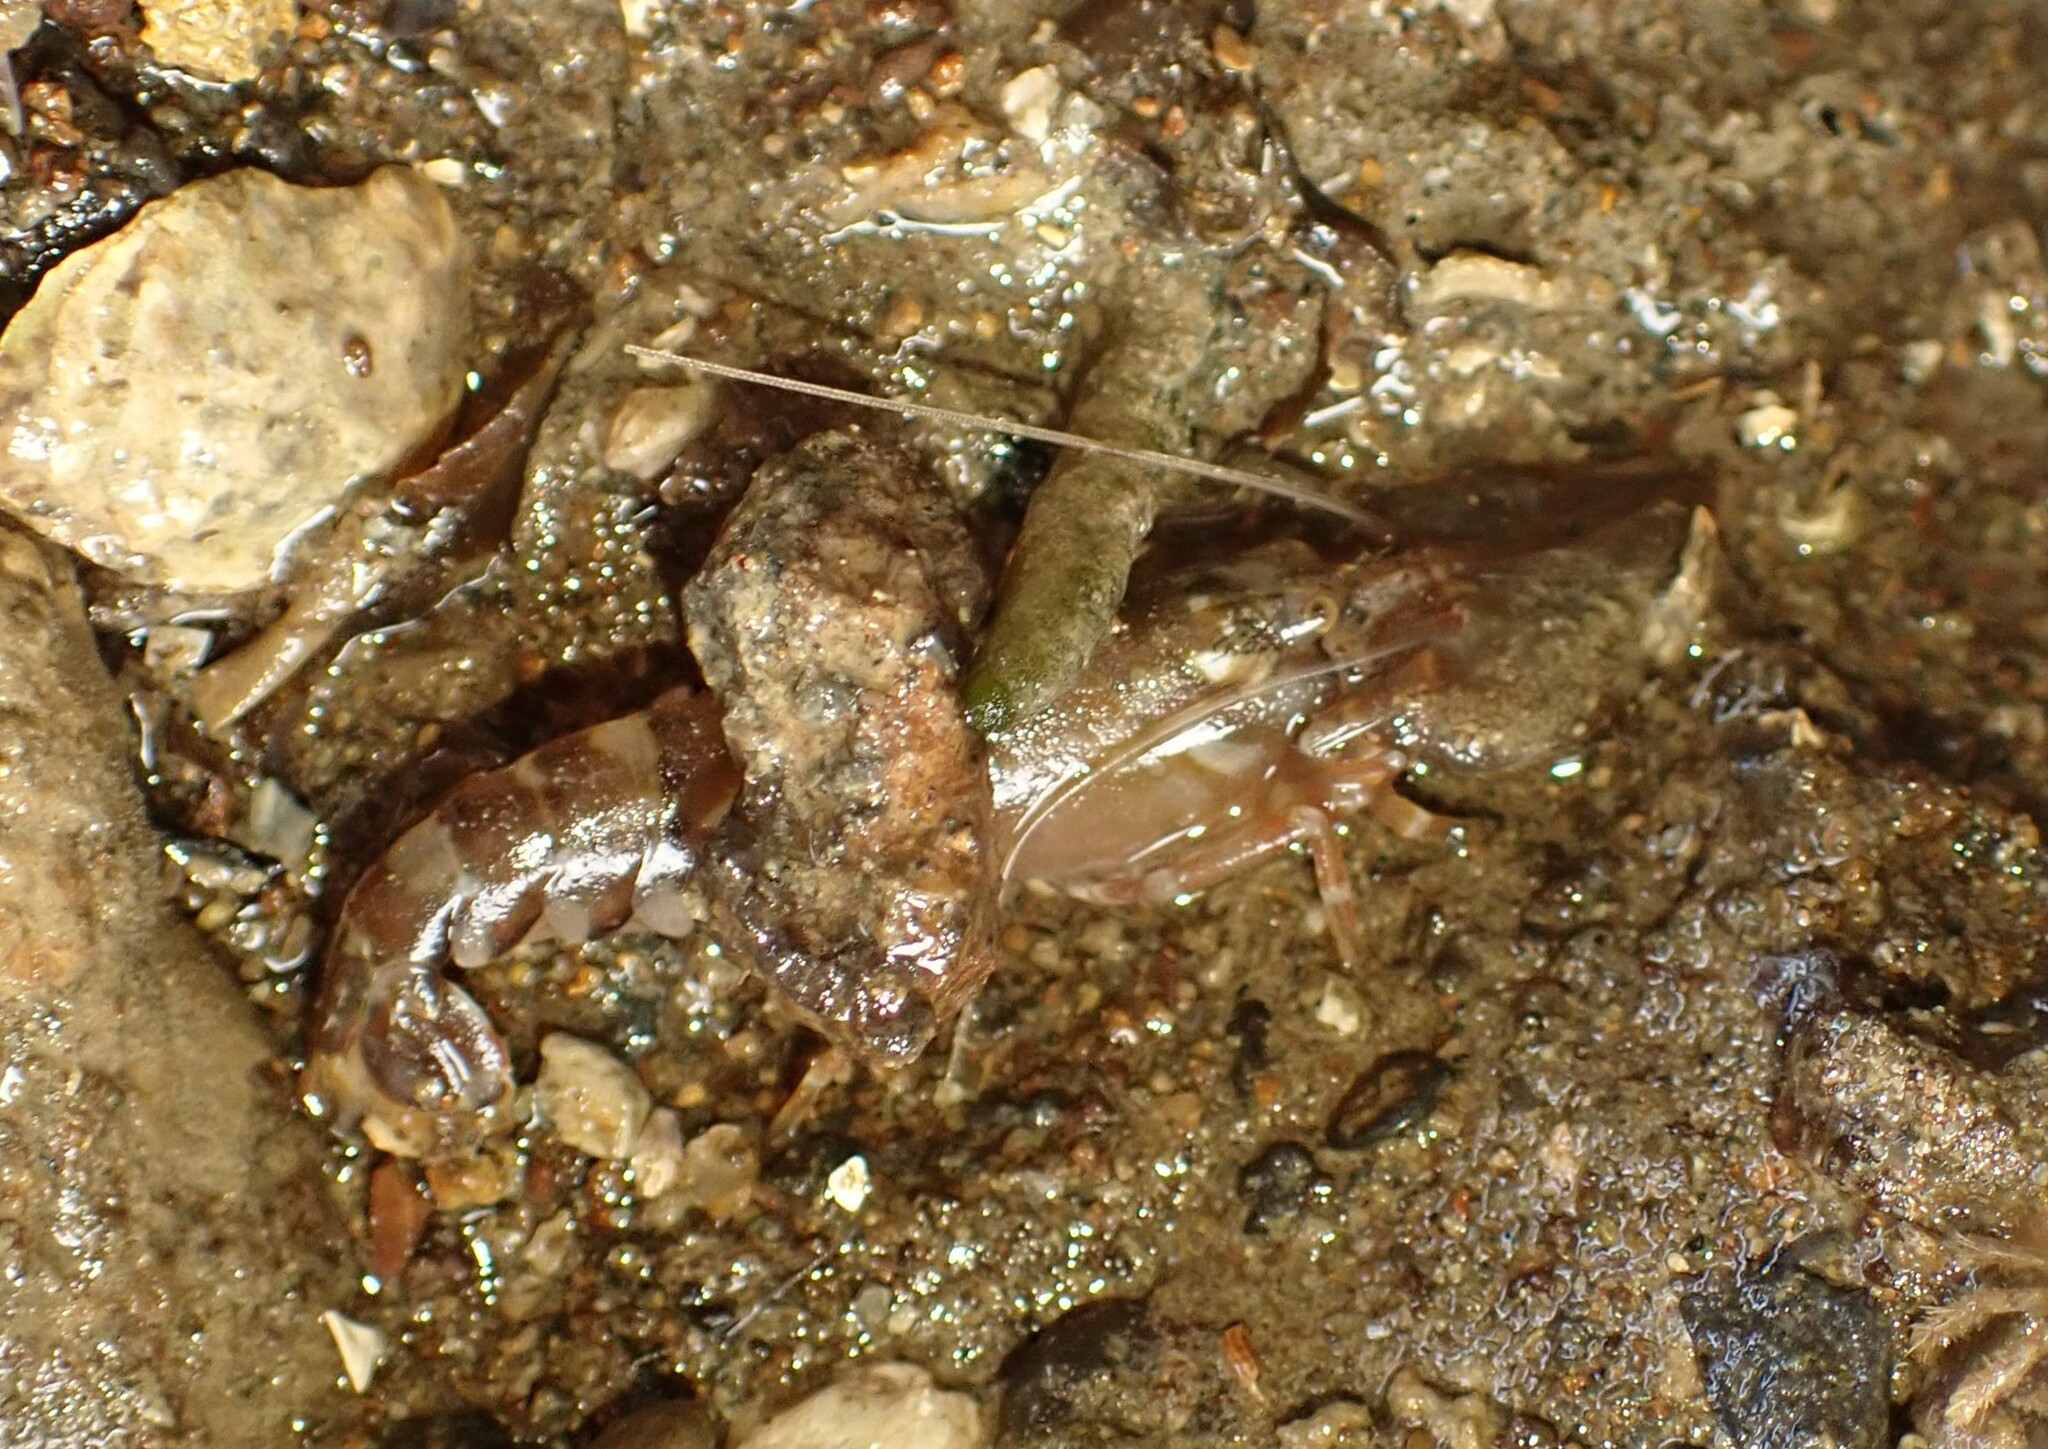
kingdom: Animalia
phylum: Arthropoda
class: Malacostraca
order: Decapoda
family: Alpheidae
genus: Alpheus
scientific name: Alpheus novaezealandiae
